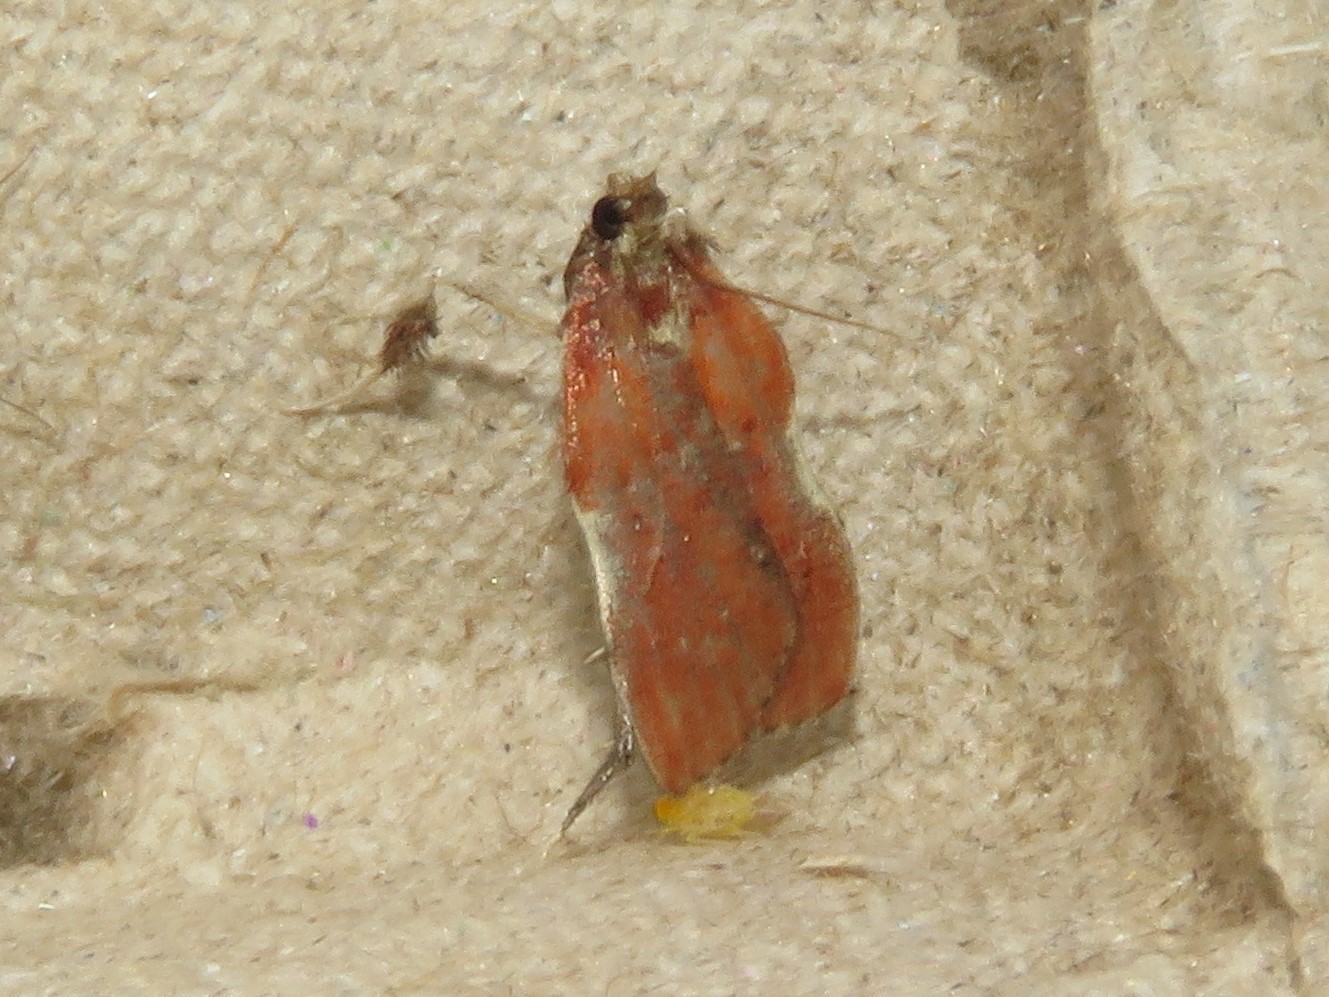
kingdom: Animalia
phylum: Arthropoda
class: Insecta
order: Lepidoptera
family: Pyralidae
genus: Galasa
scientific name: Galasa nigrinodis
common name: Boxwood leaftier moth
